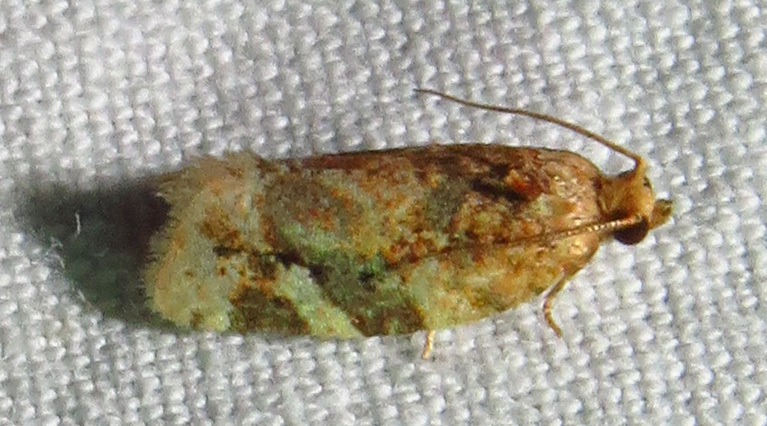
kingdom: Animalia
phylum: Arthropoda
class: Insecta
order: Lepidoptera
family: Tortricidae
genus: Argyrotaenia
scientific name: Argyrotaenia velutinana
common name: Red-banded leafroller moth
